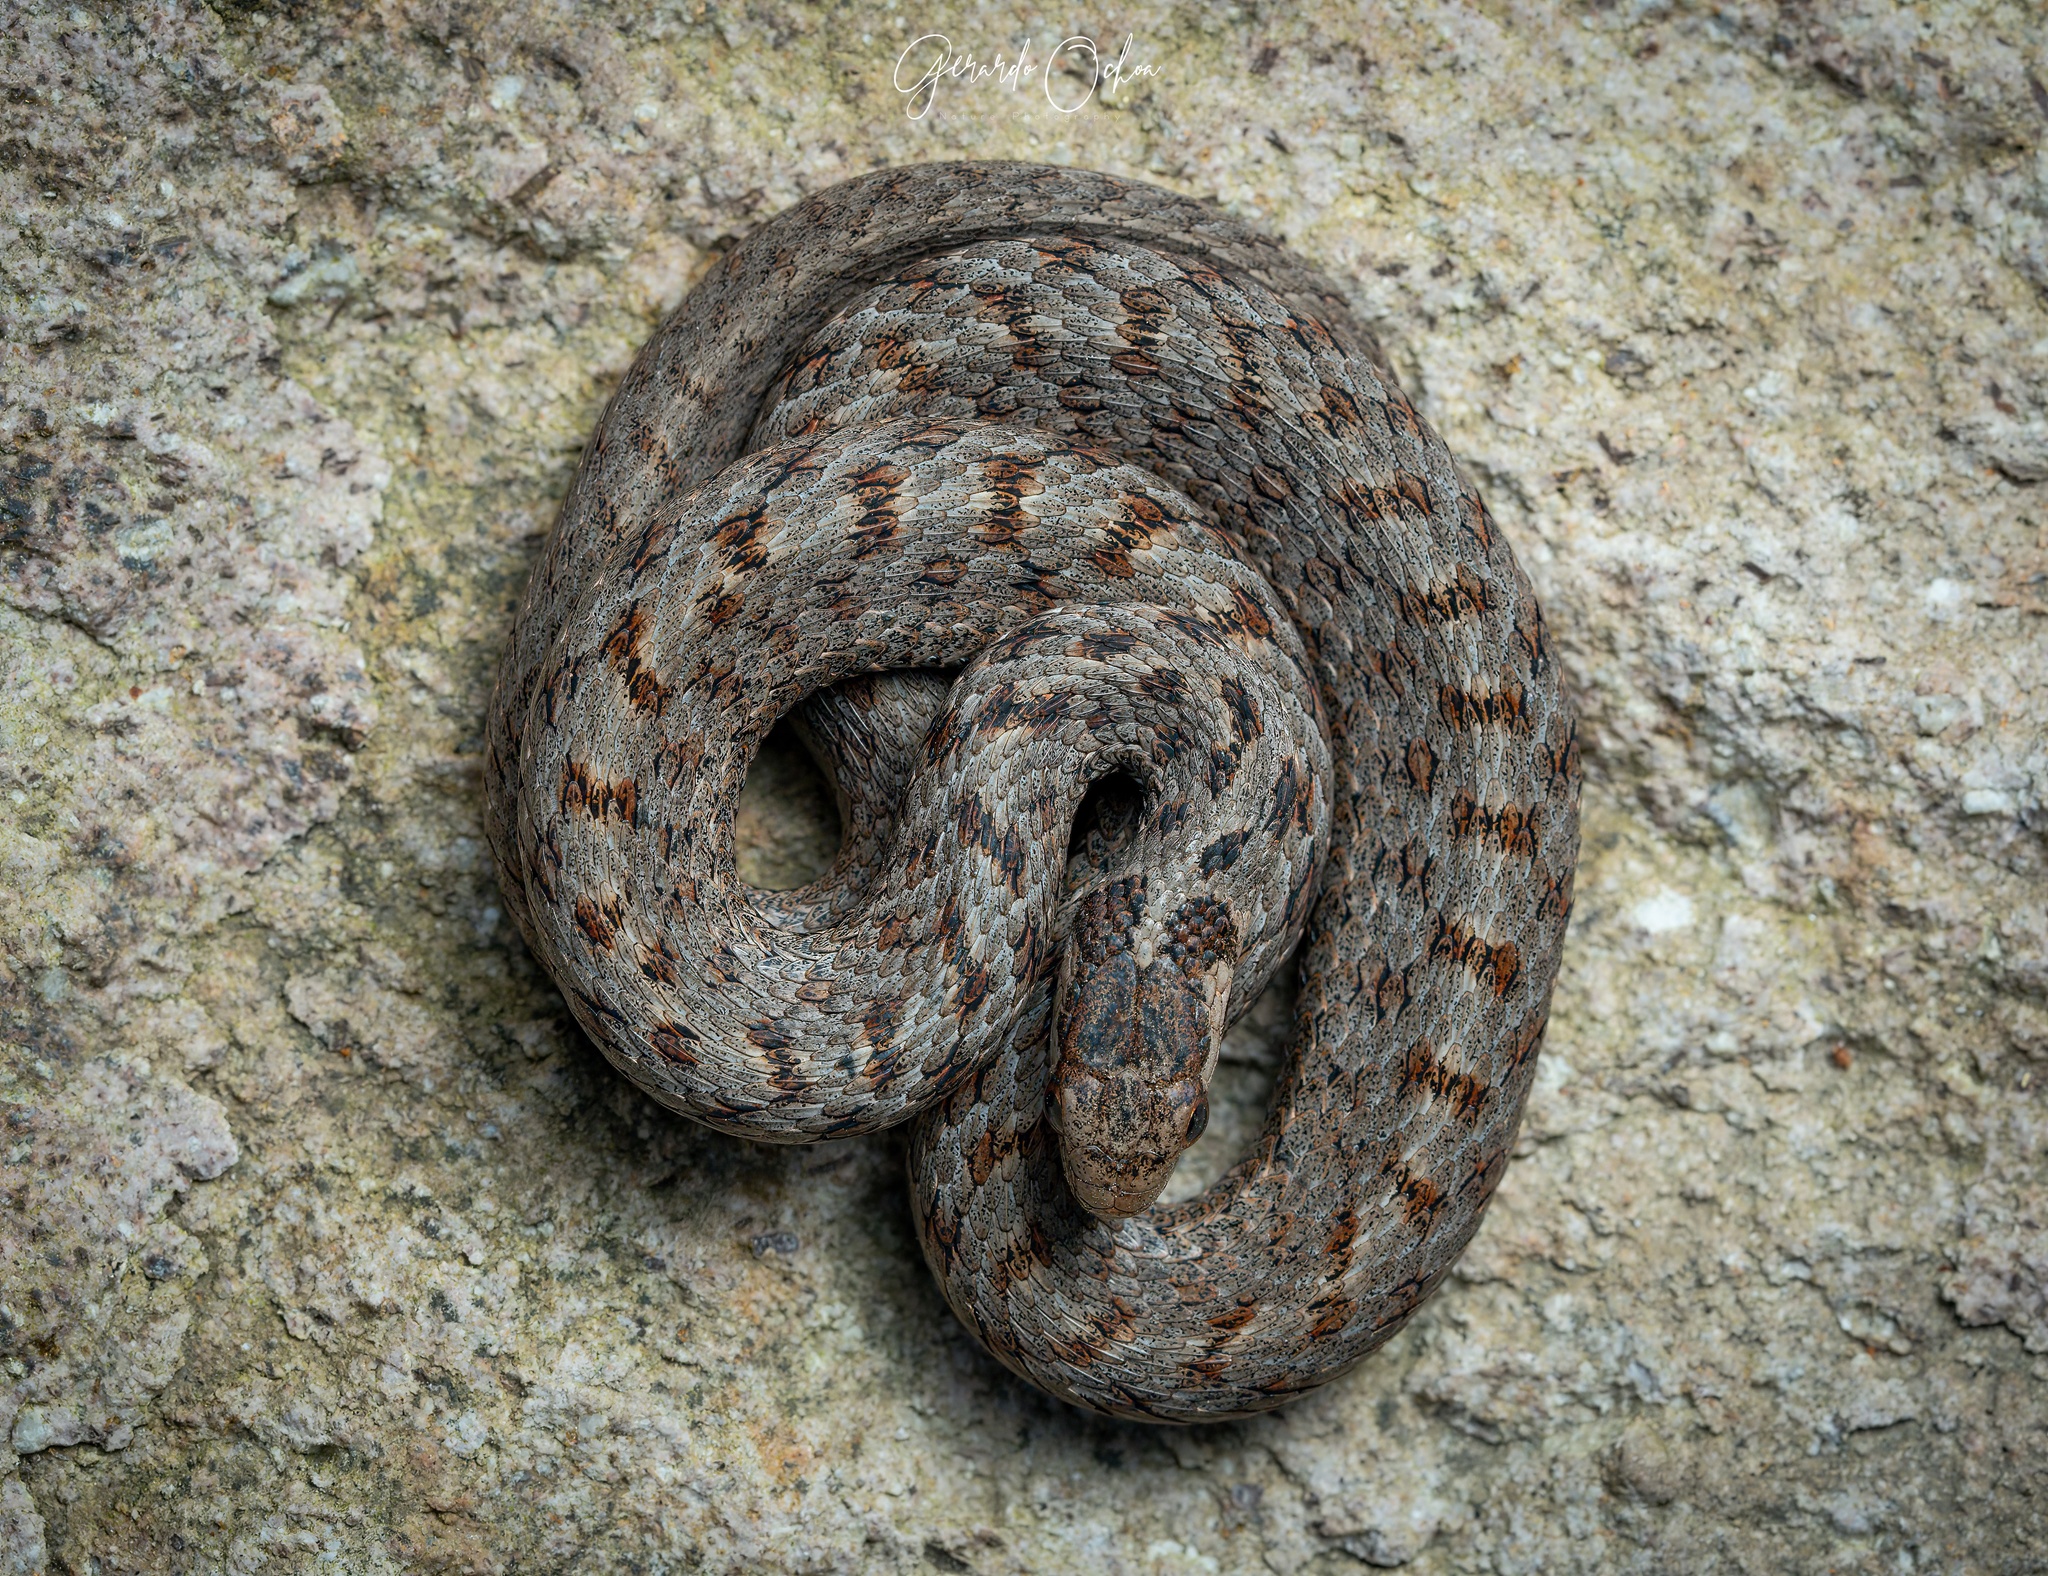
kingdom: Animalia
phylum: Chordata
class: Squamata
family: Colubridae
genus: Storeria
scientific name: Storeria storerioides
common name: Mexican brown snake
